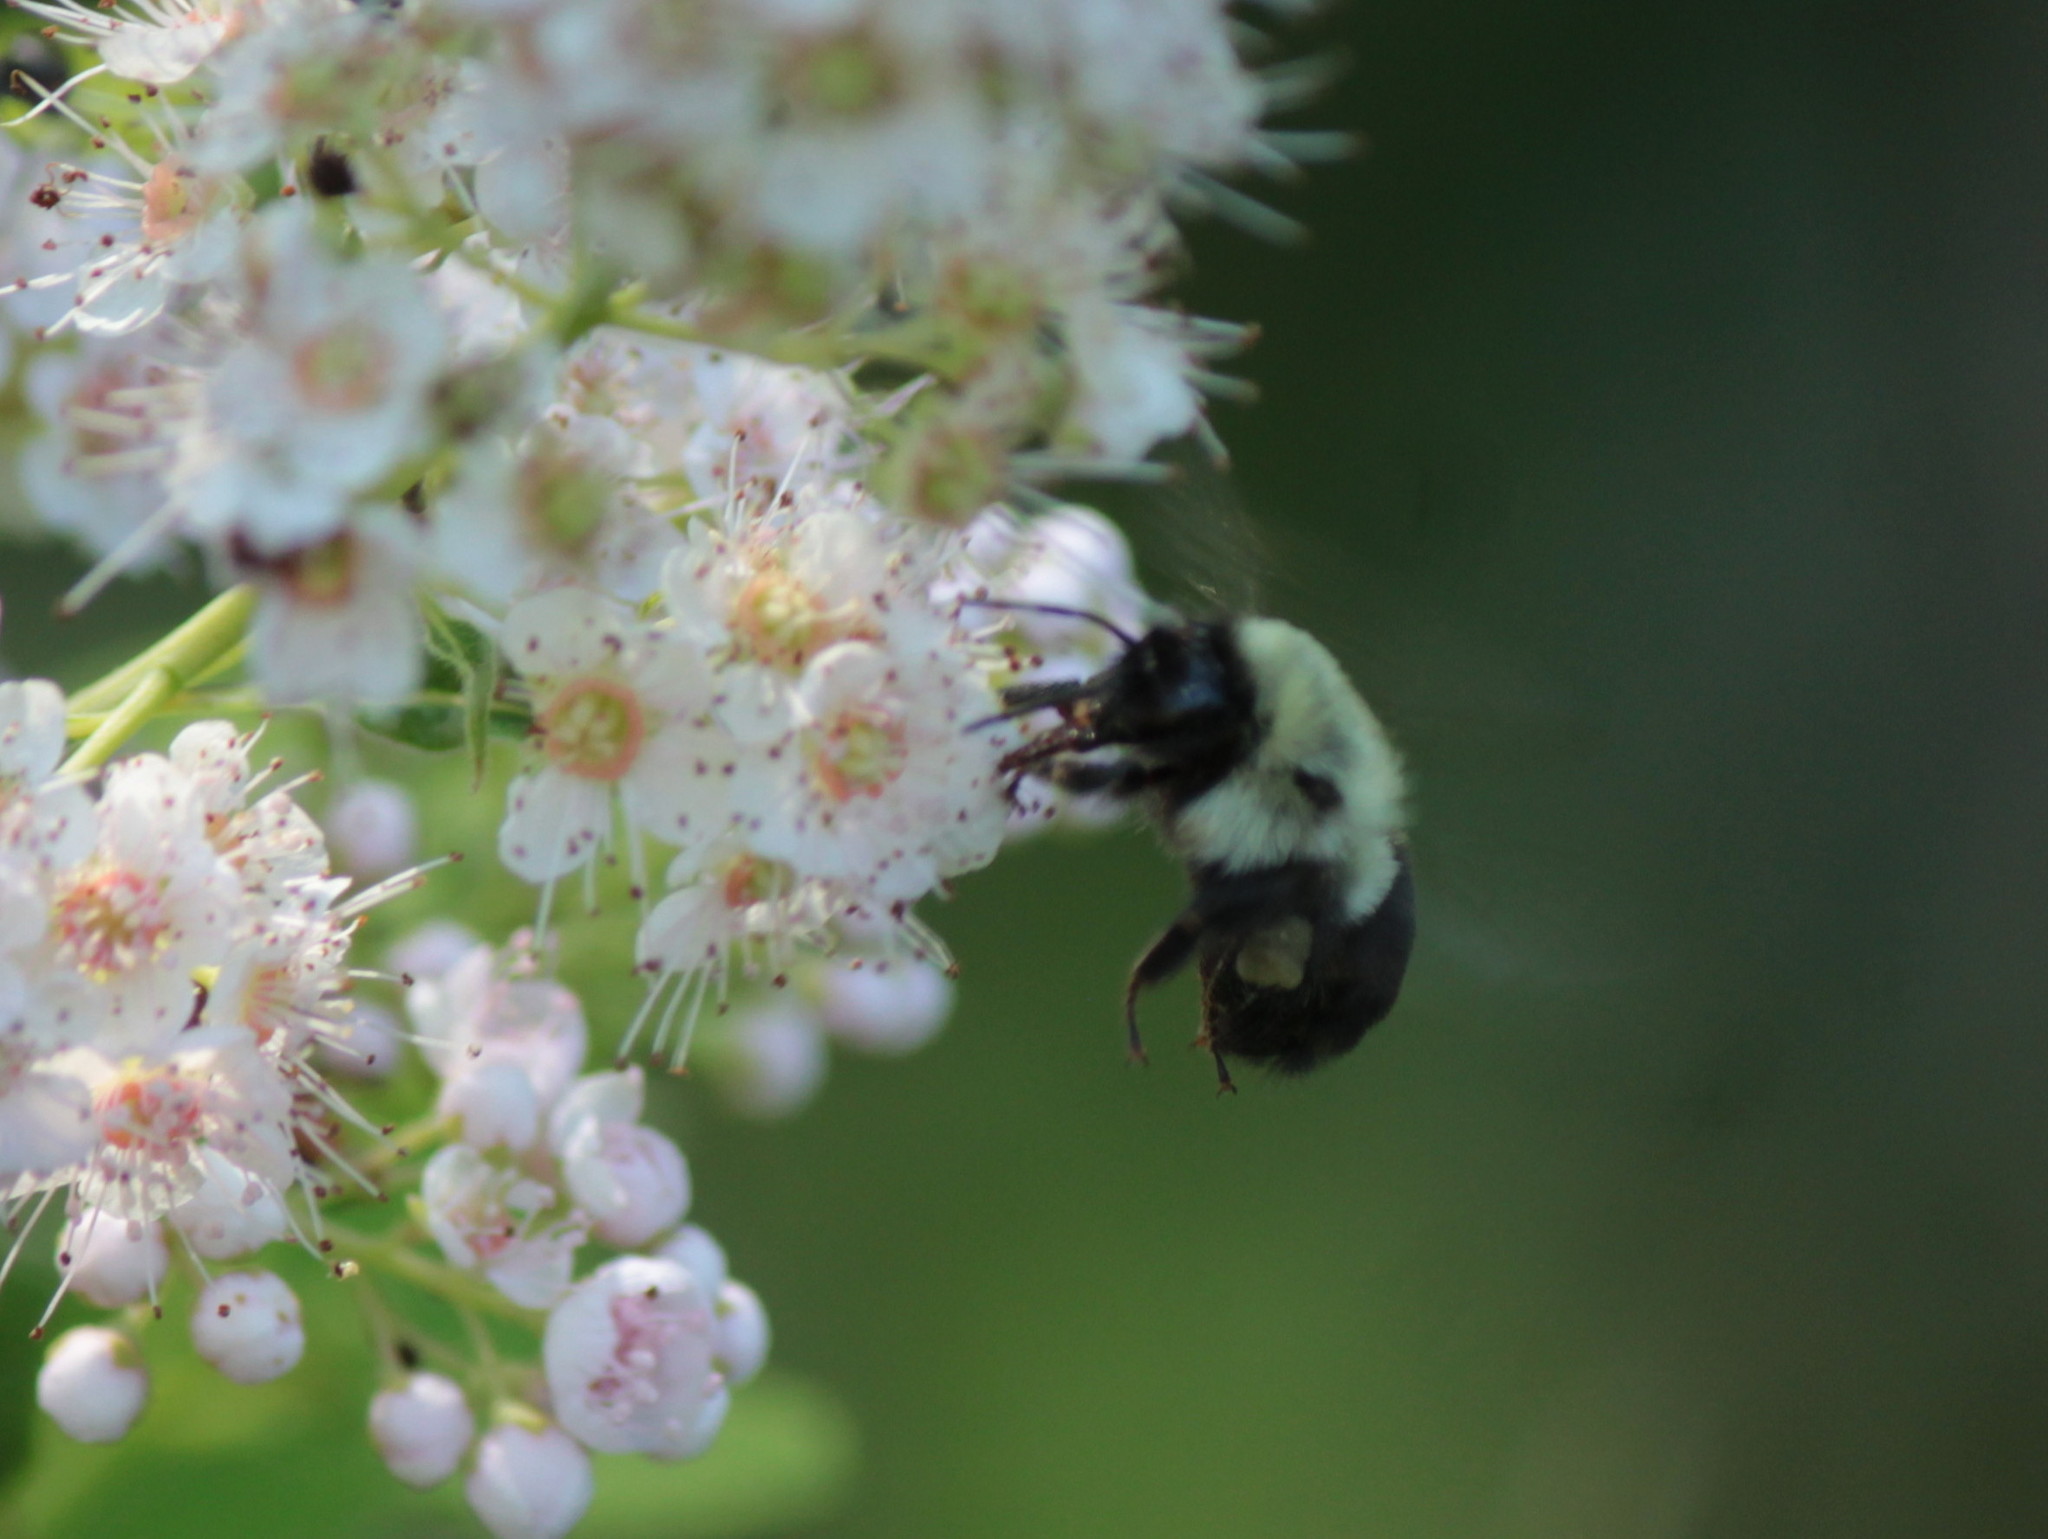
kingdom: Animalia
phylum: Arthropoda
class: Insecta
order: Hymenoptera
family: Apidae
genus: Bombus
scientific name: Bombus impatiens
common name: Common eastern bumble bee
